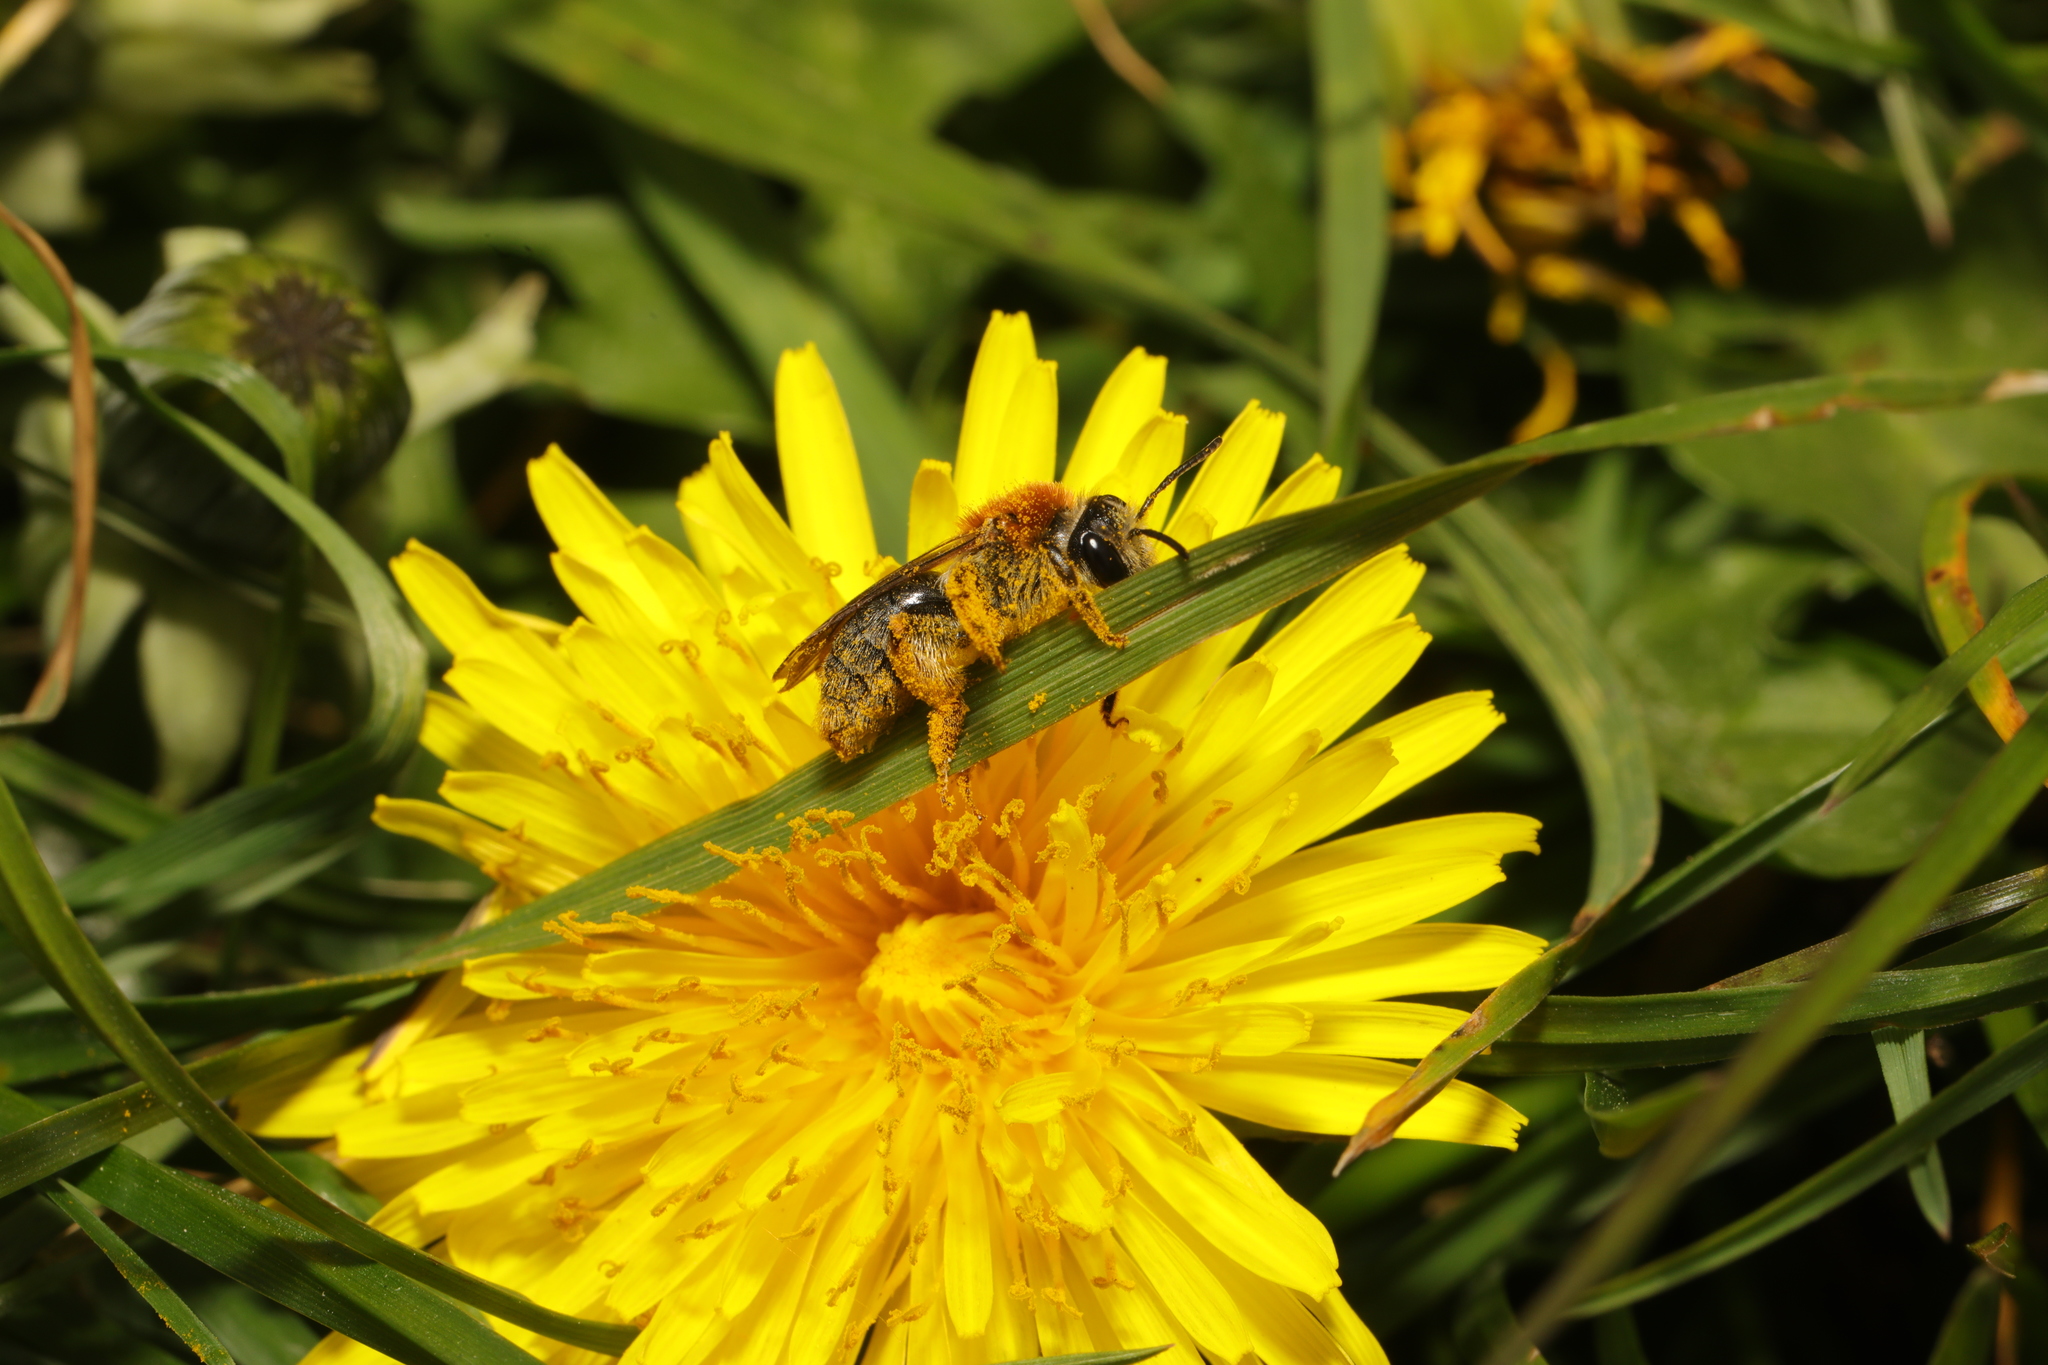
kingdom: Animalia
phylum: Arthropoda
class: Insecta
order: Hymenoptera
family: Andrenidae
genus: Andrena
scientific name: Andrena haemorrhoa
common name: Early mining bee
